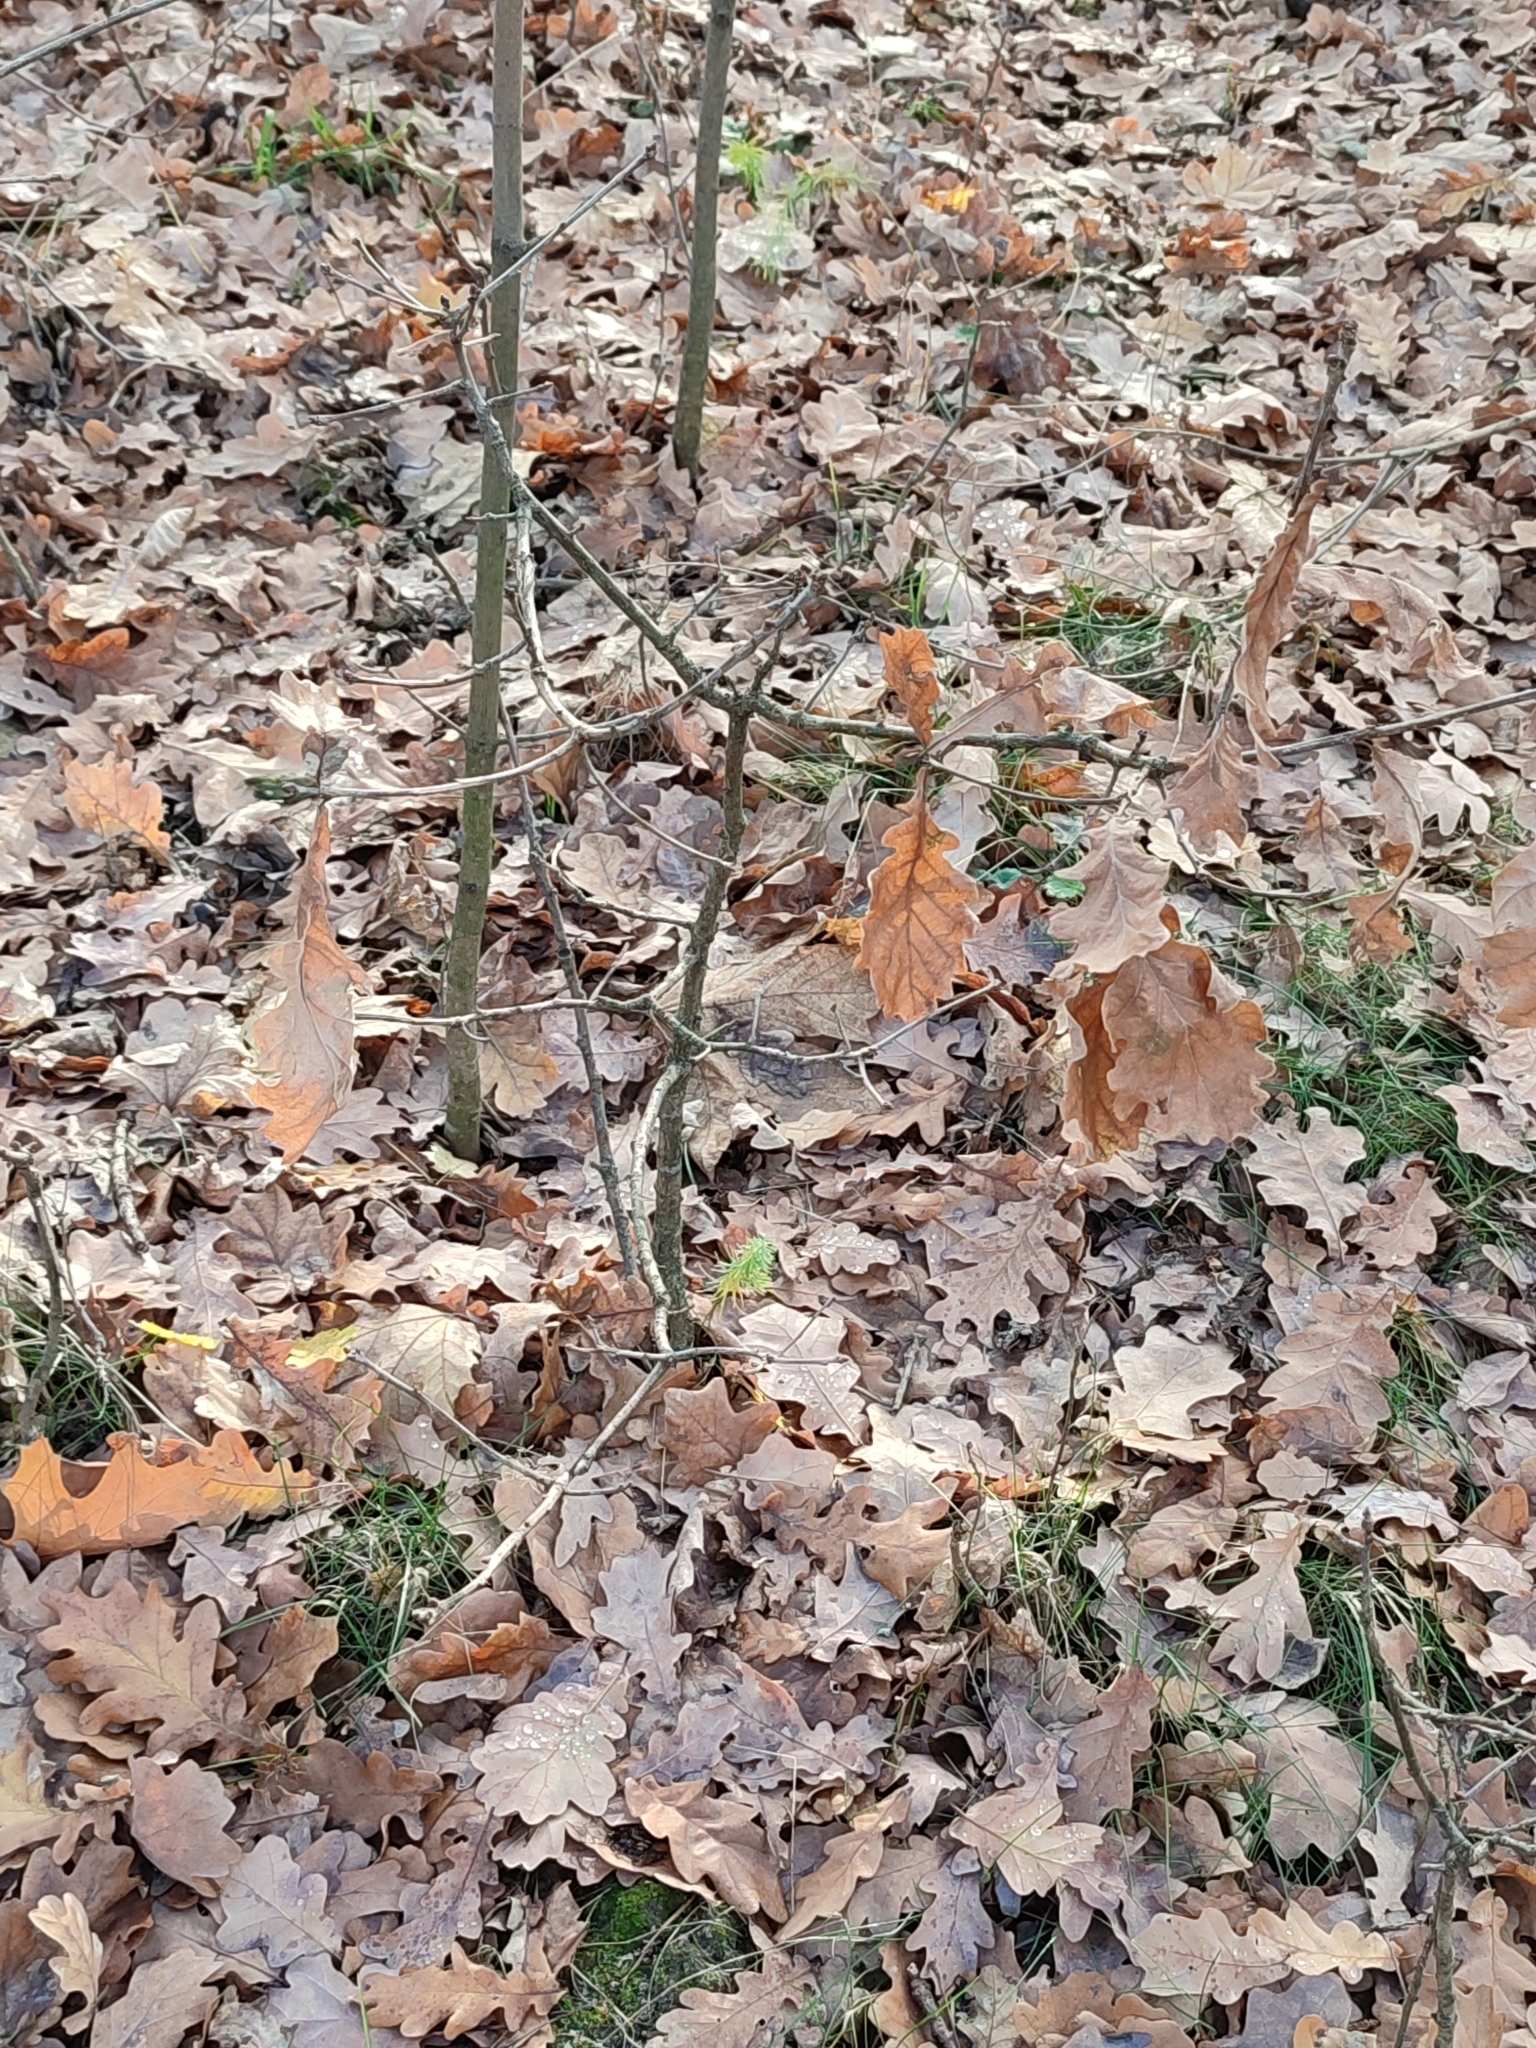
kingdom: Plantae
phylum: Tracheophyta
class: Magnoliopsida
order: Fagales
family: Fagaceae
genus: Quercus
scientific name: Quercus robur
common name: Pedunculate oak
